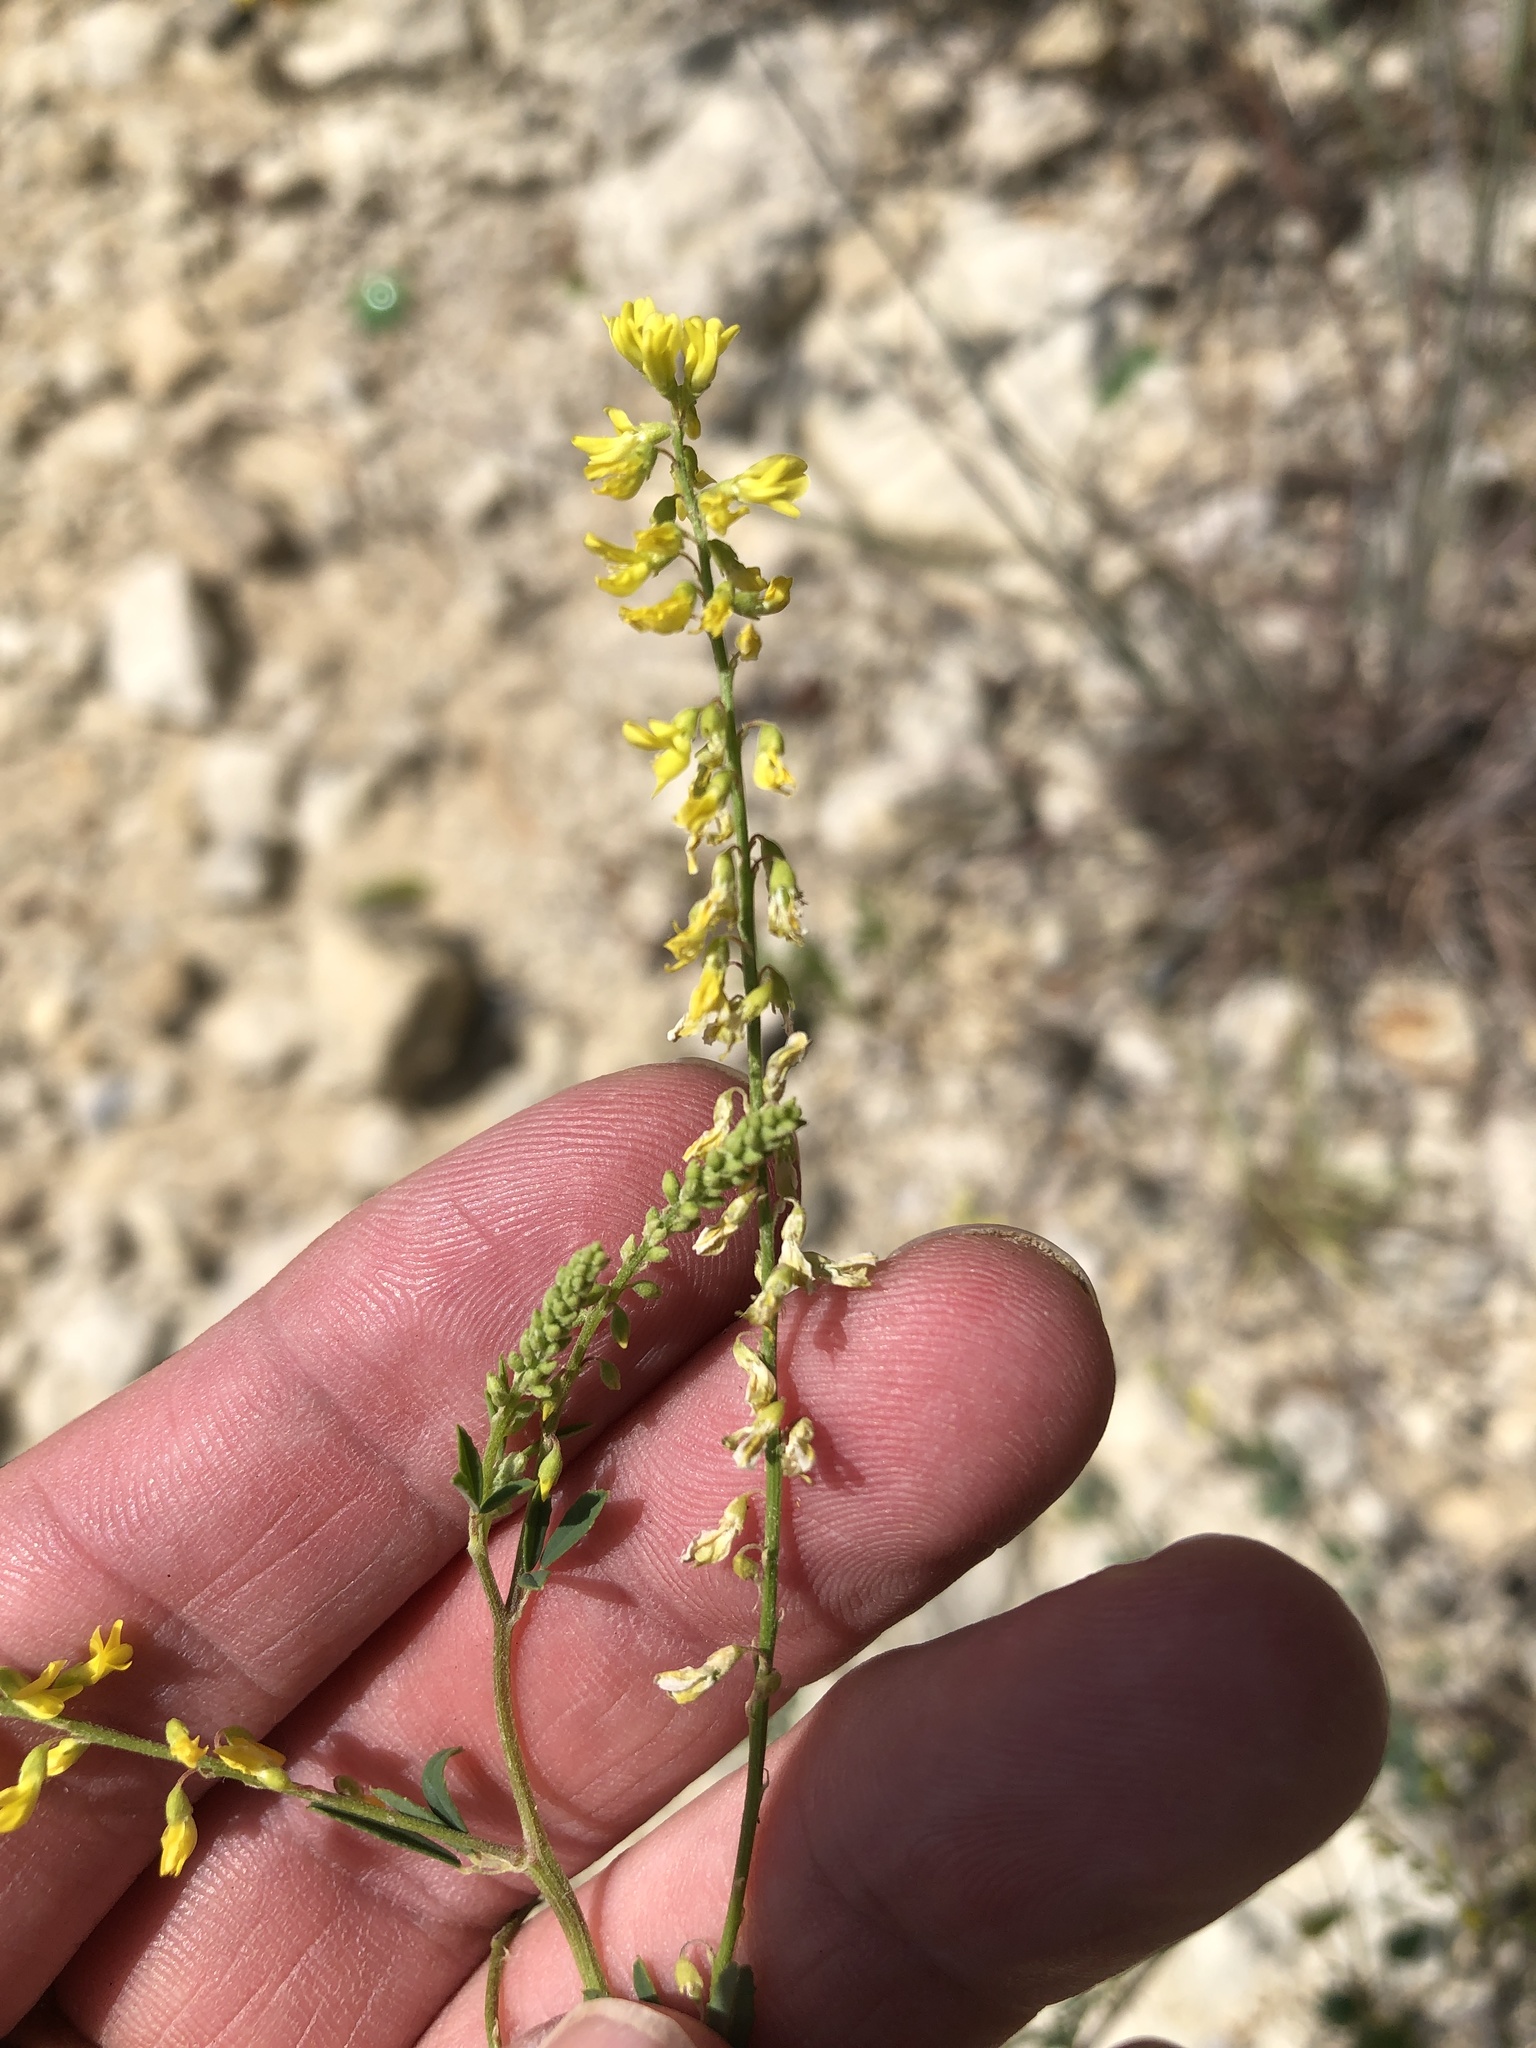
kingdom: Plantae
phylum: Tracheophyta
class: Magnoliopsida
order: Fabales
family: Fabaceae
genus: Melilotus
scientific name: Melilotus officinalis
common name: Sweetclover
